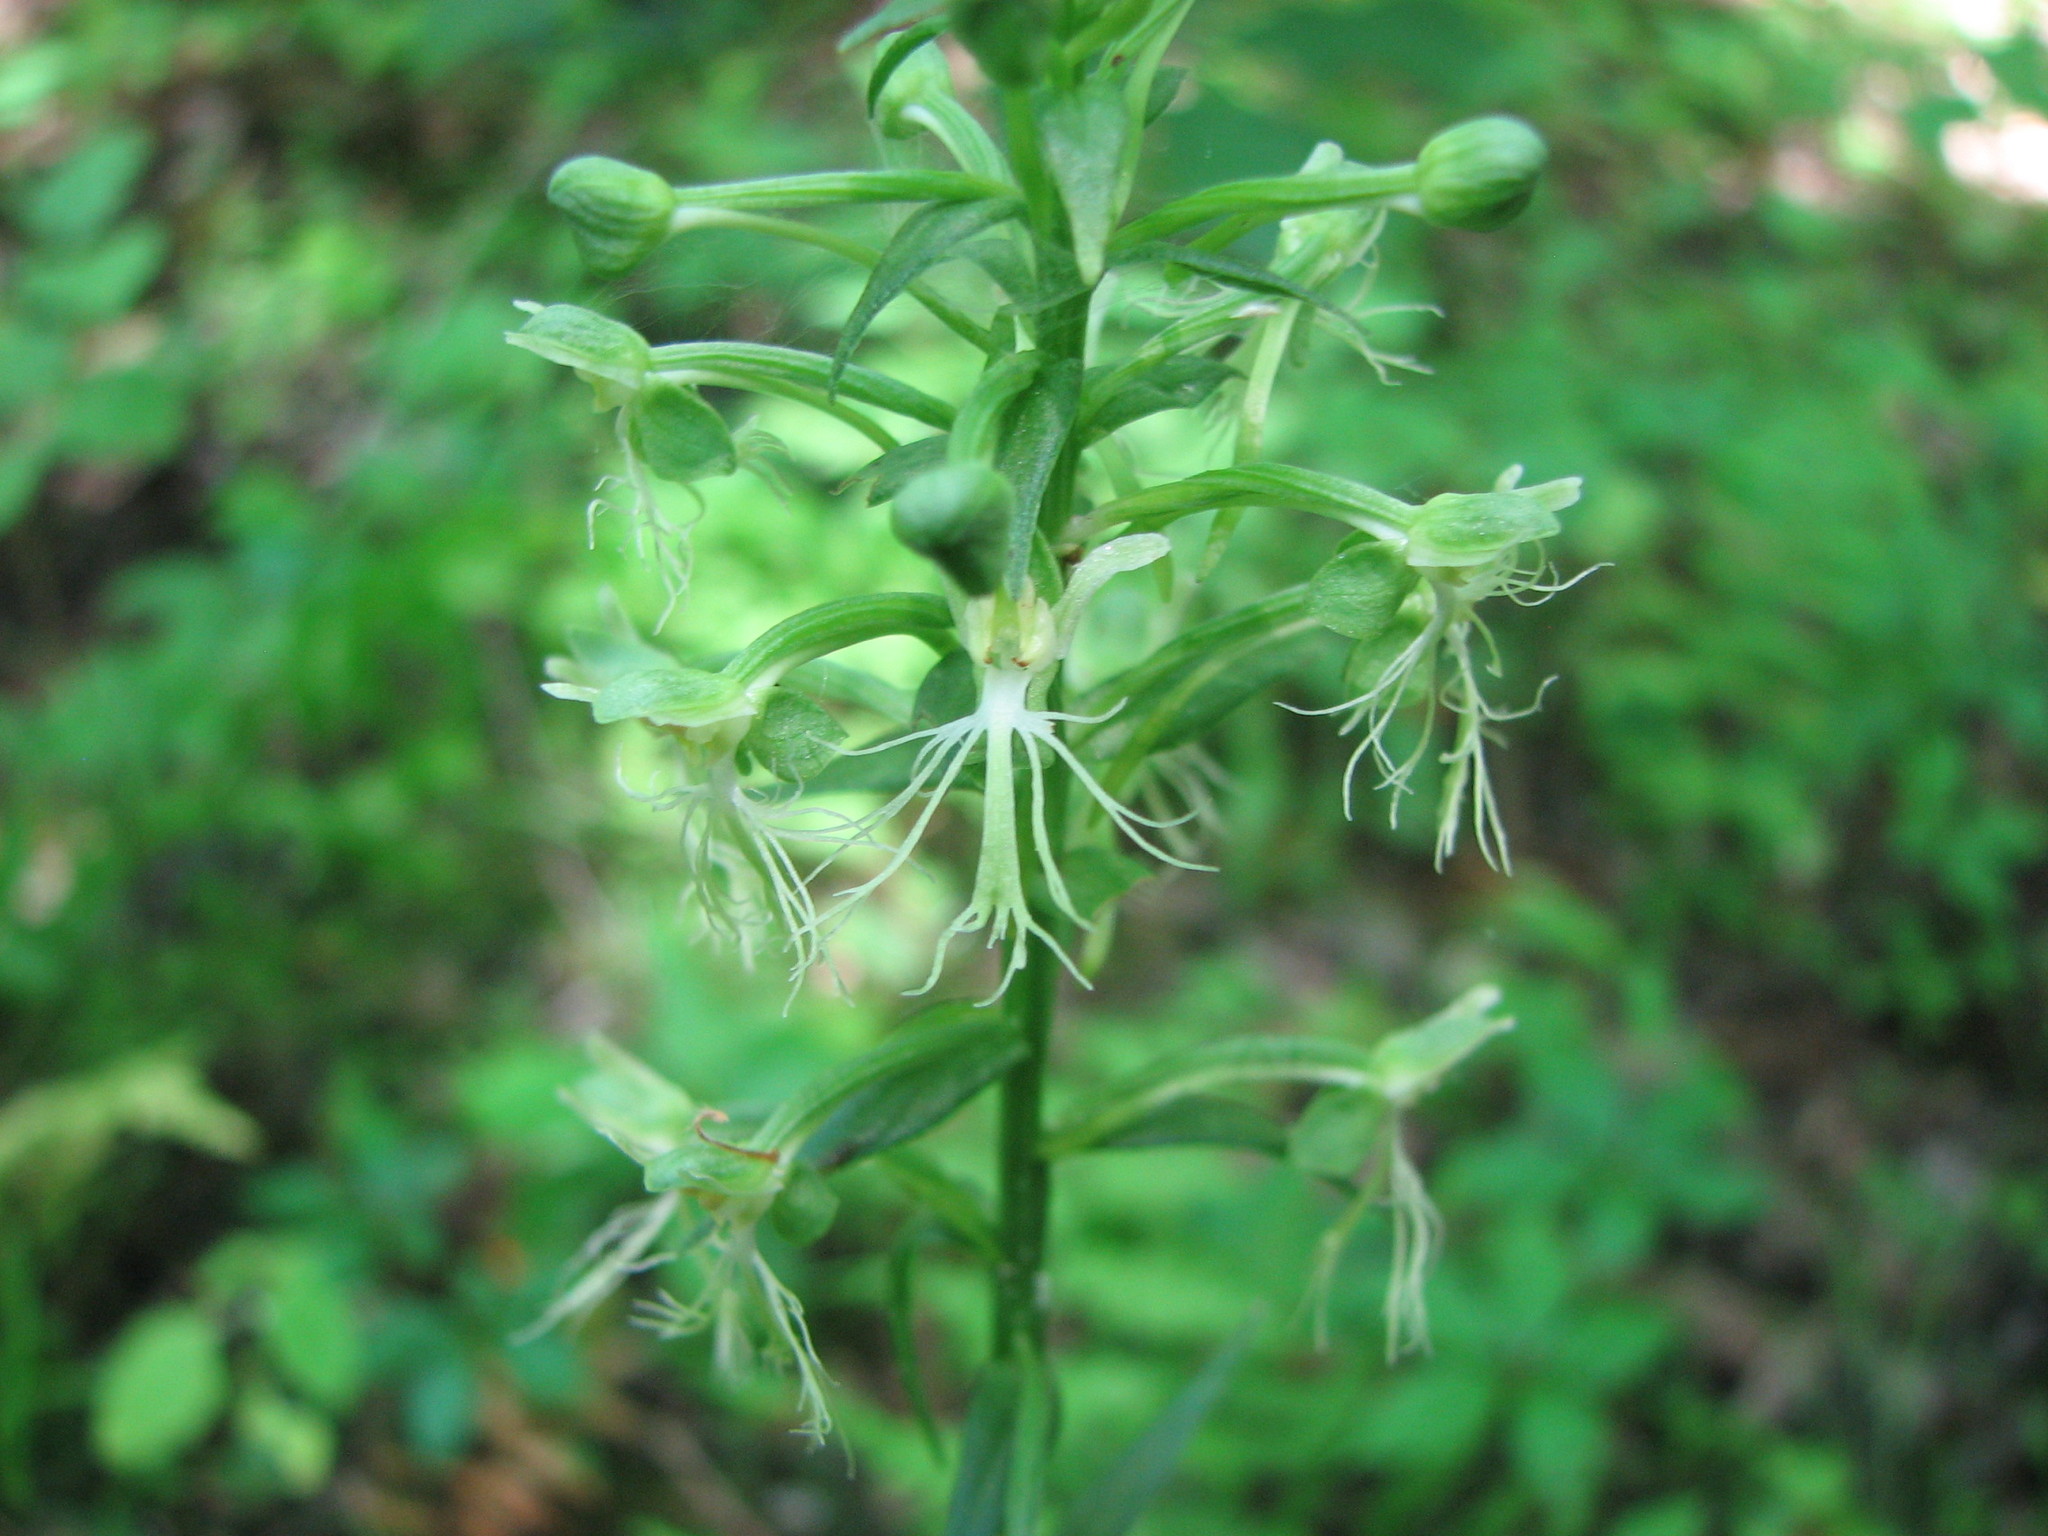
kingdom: Plantae
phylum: Tracheophyta
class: Liliopsida
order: Asparagales
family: Orchidaceae
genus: Platanthera
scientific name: Platanthera lacera
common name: Green fringed orchid
